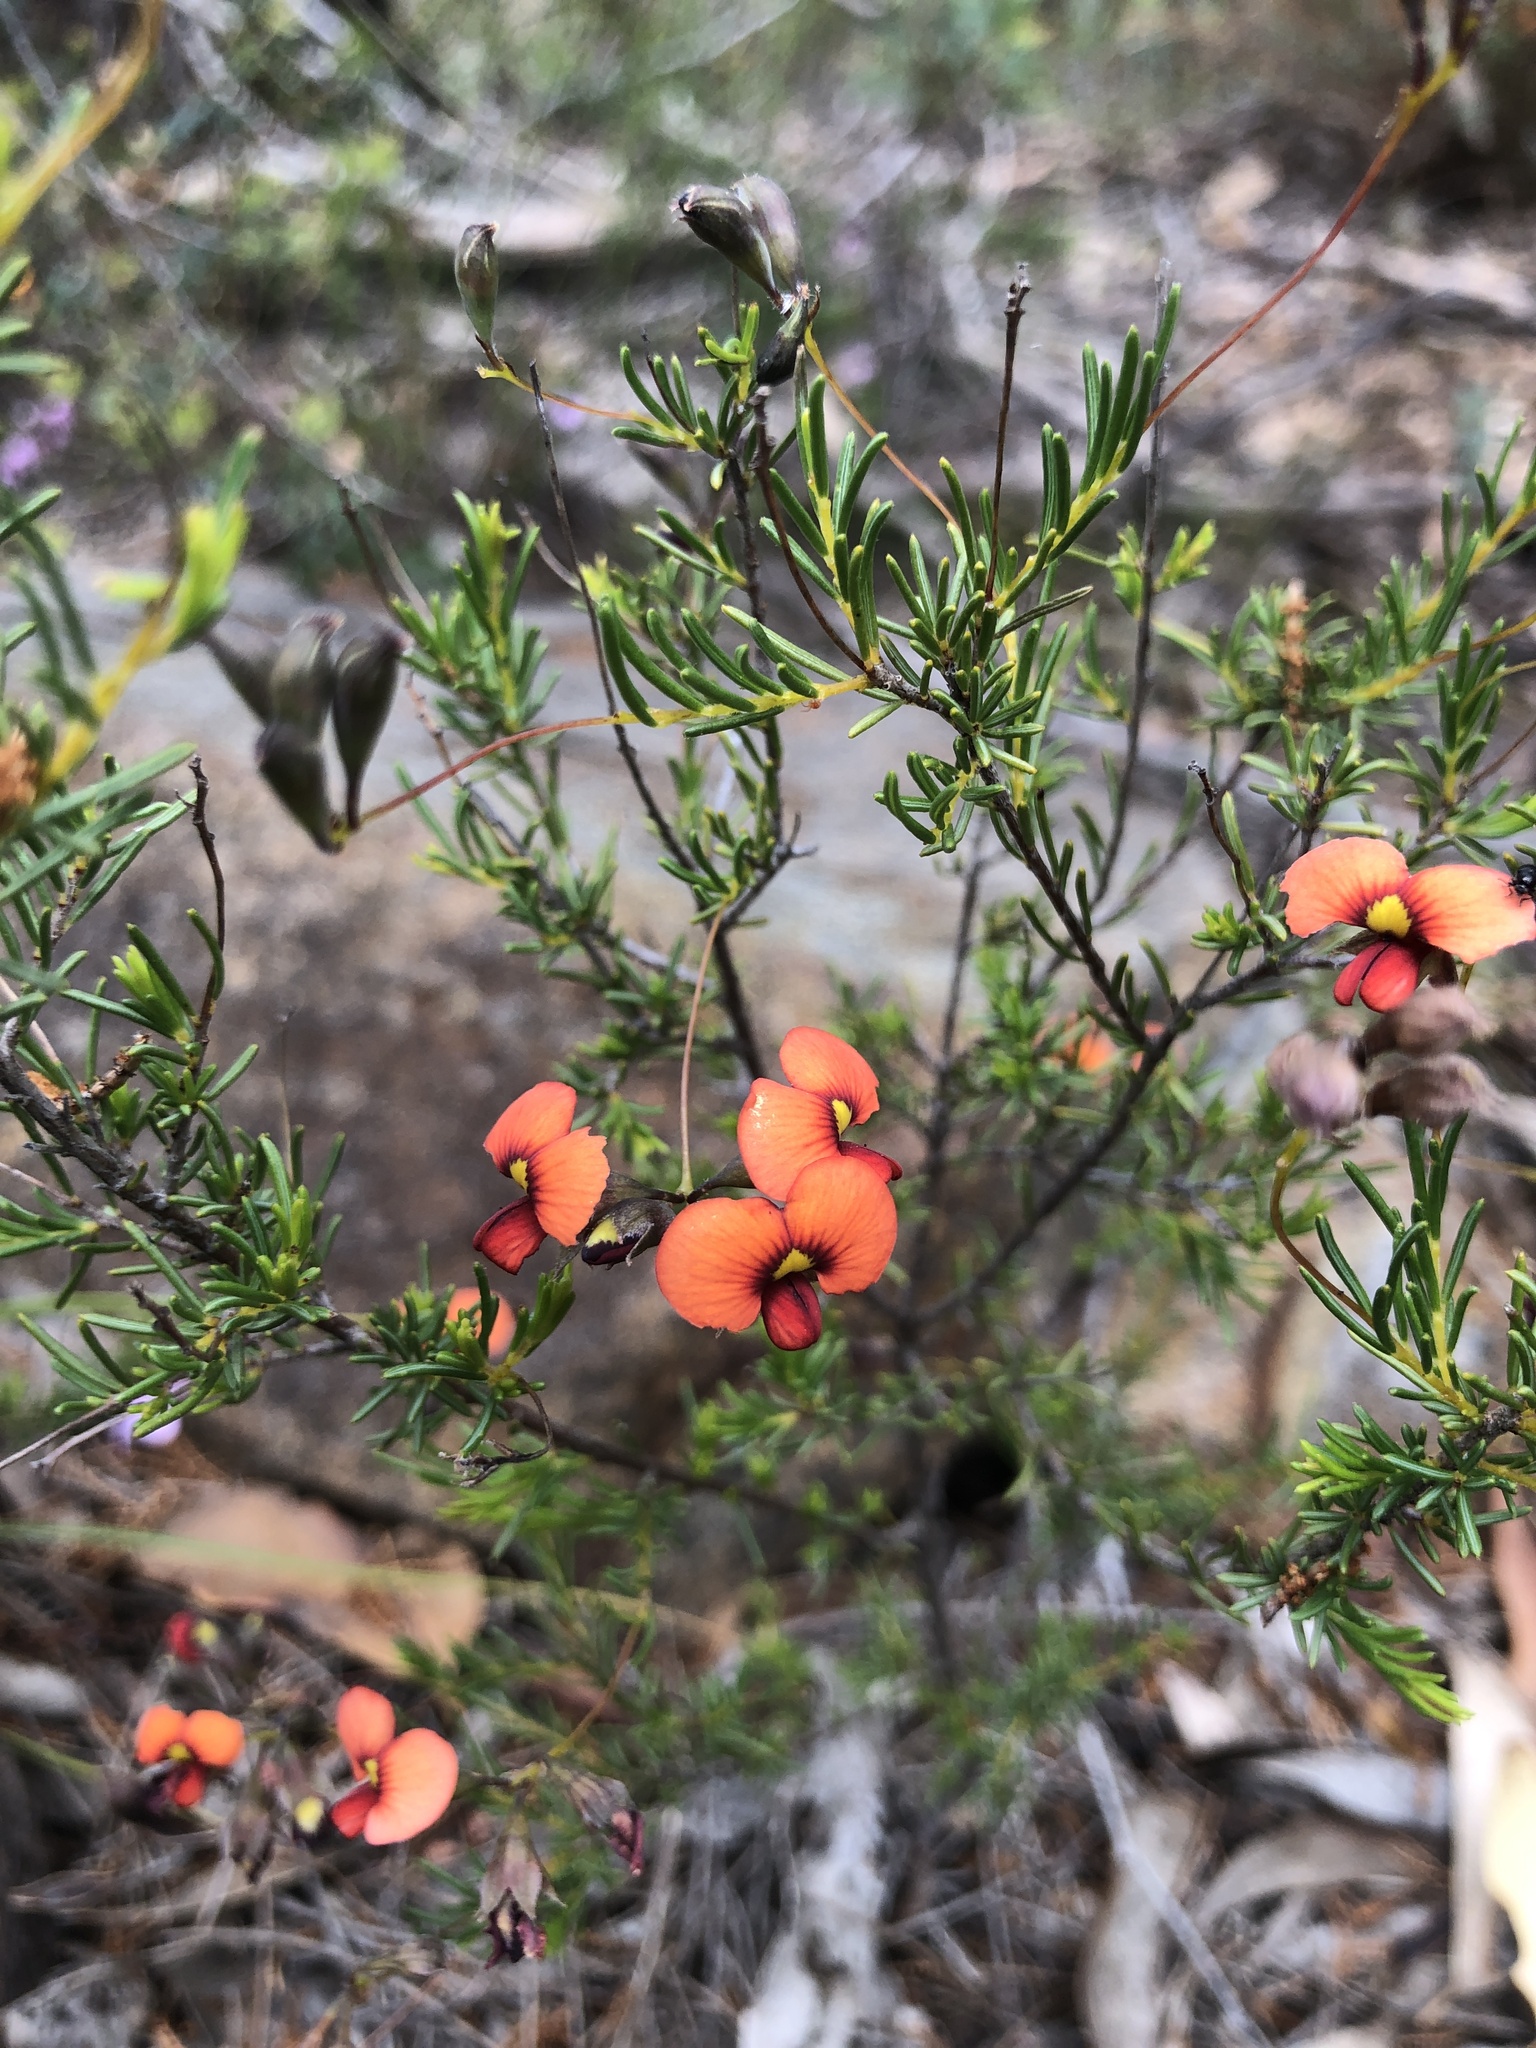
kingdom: Plantae
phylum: Tracheophyta
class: Magnoliopsida
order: Fabales
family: Fabaceae
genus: Dillwynia
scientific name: Dillwynia hispida
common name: Red parrot-pea
